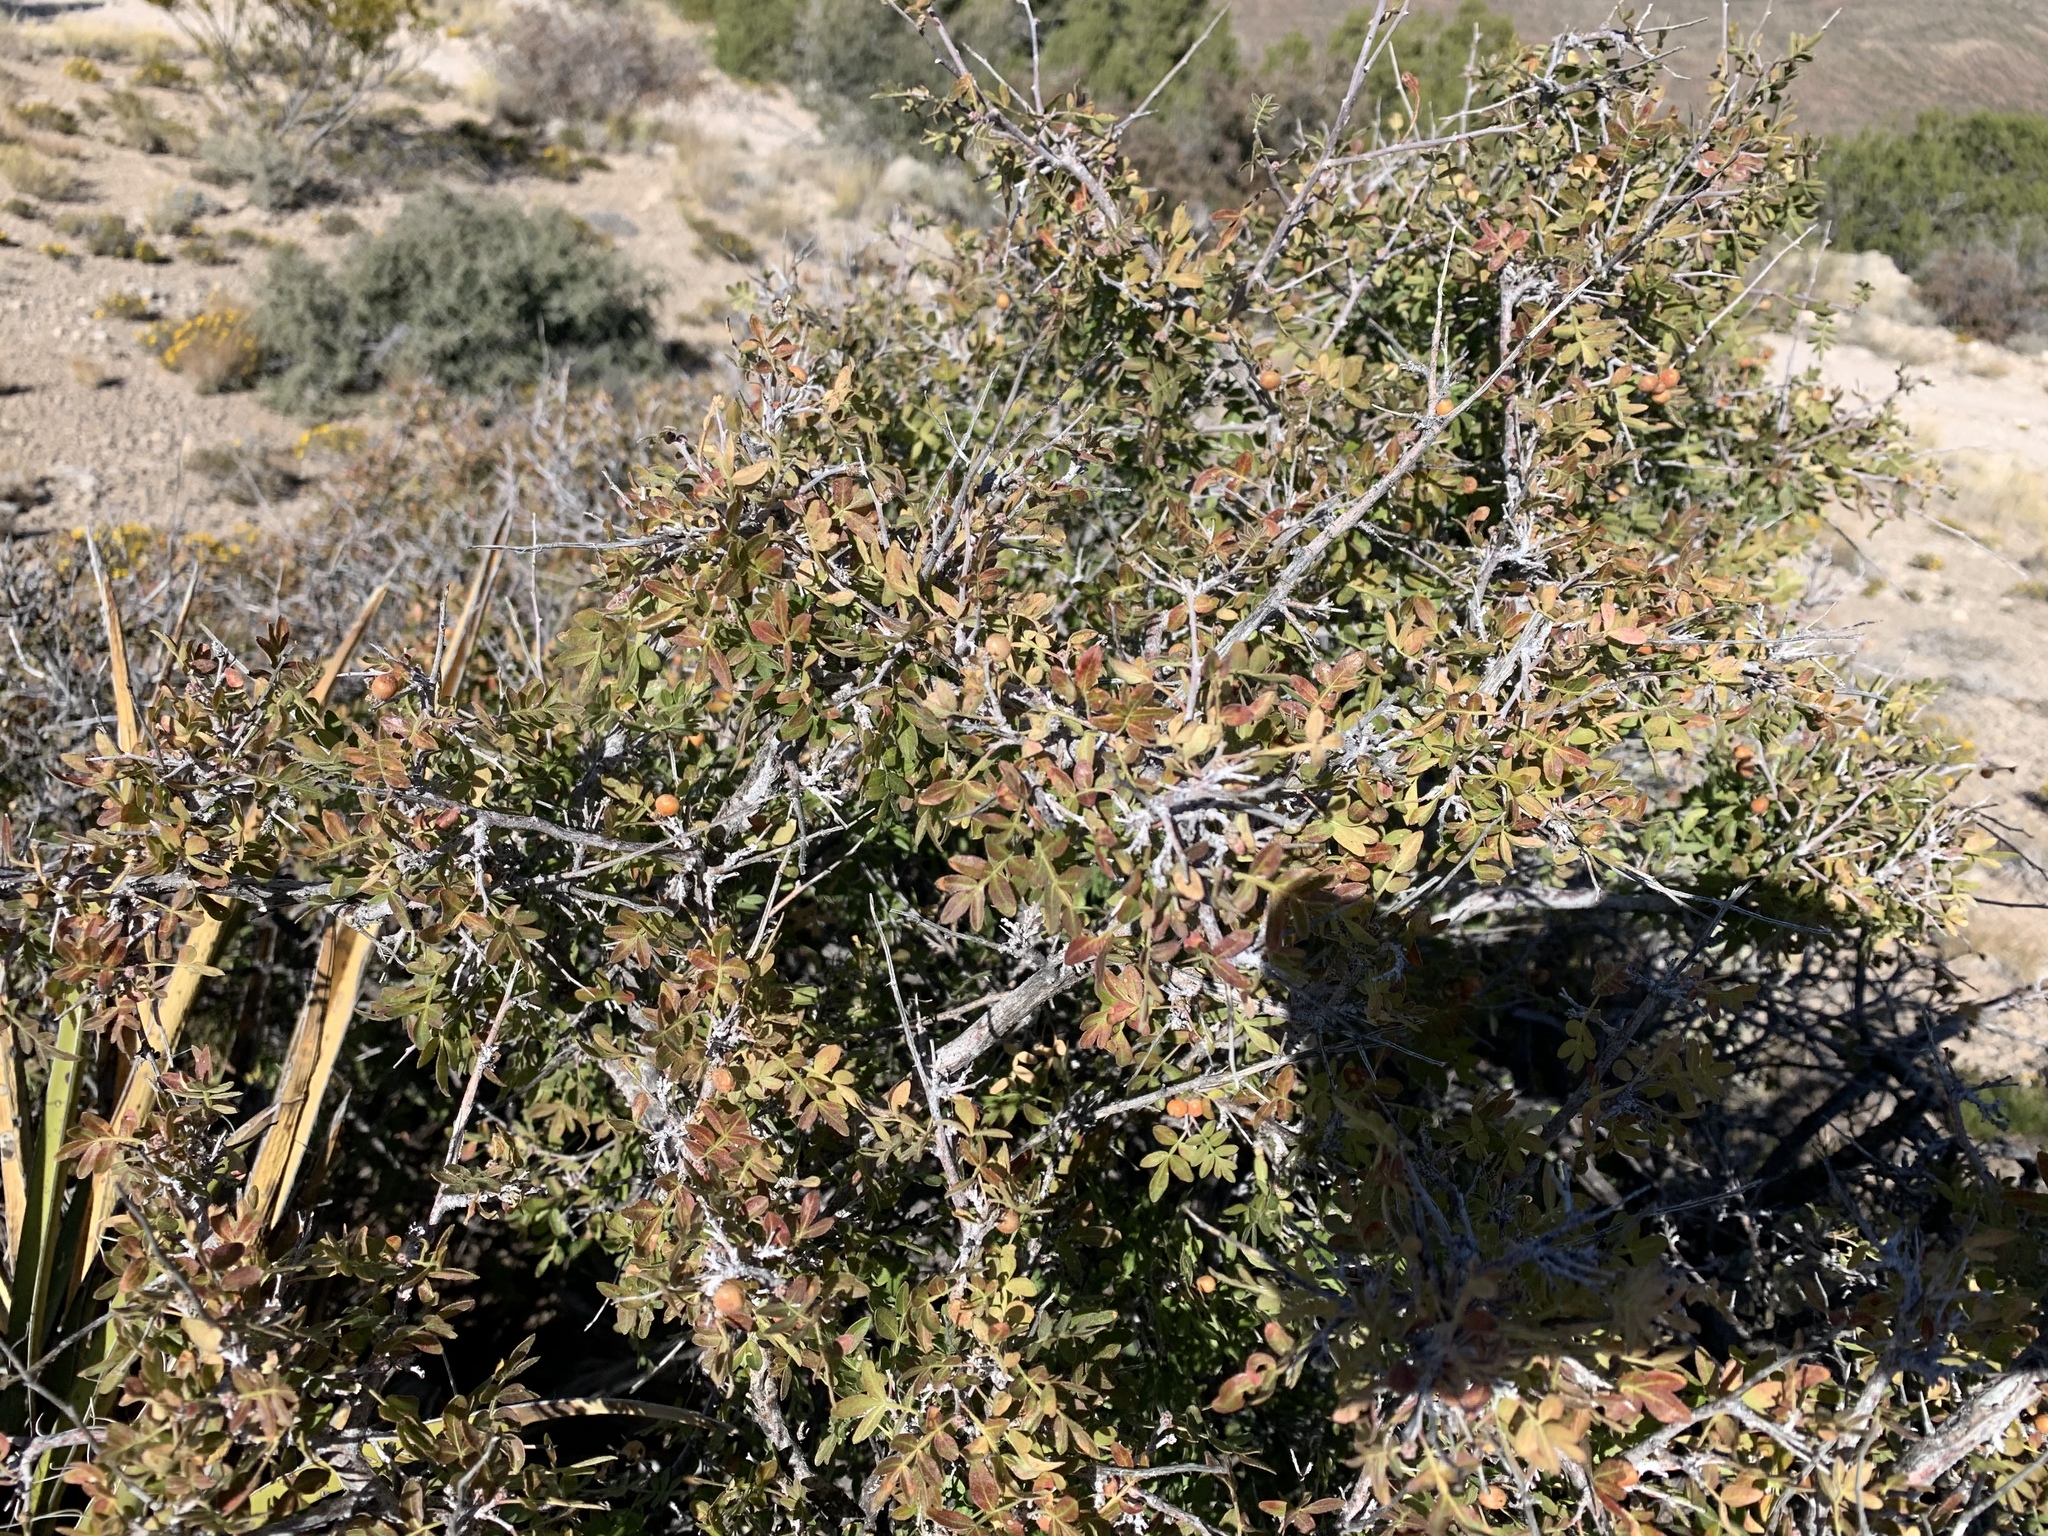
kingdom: Plantae
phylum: Tracheophyta
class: Magnoliopsida
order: Sapindales
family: Anacardiaceae
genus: Rhus
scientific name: Rhus microphylla
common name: Desert sumac
